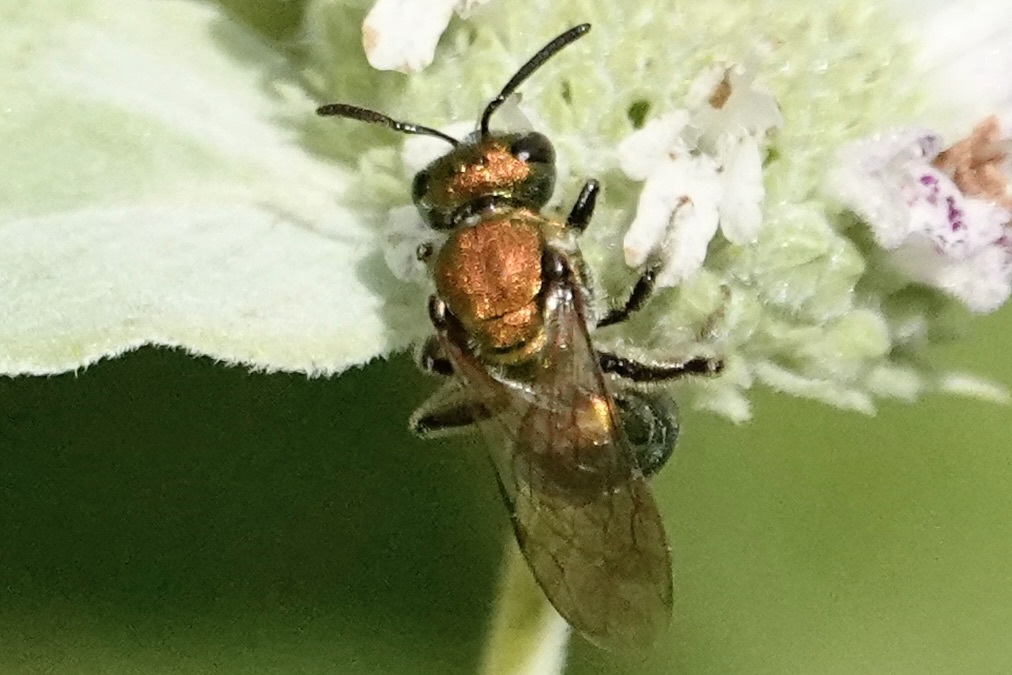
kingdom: Animalia
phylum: Arthropoda
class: Insecta
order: Hymenoptera
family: Halictidae
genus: Augochlora
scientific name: Augochlora pura
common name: Pure green sweat bee
